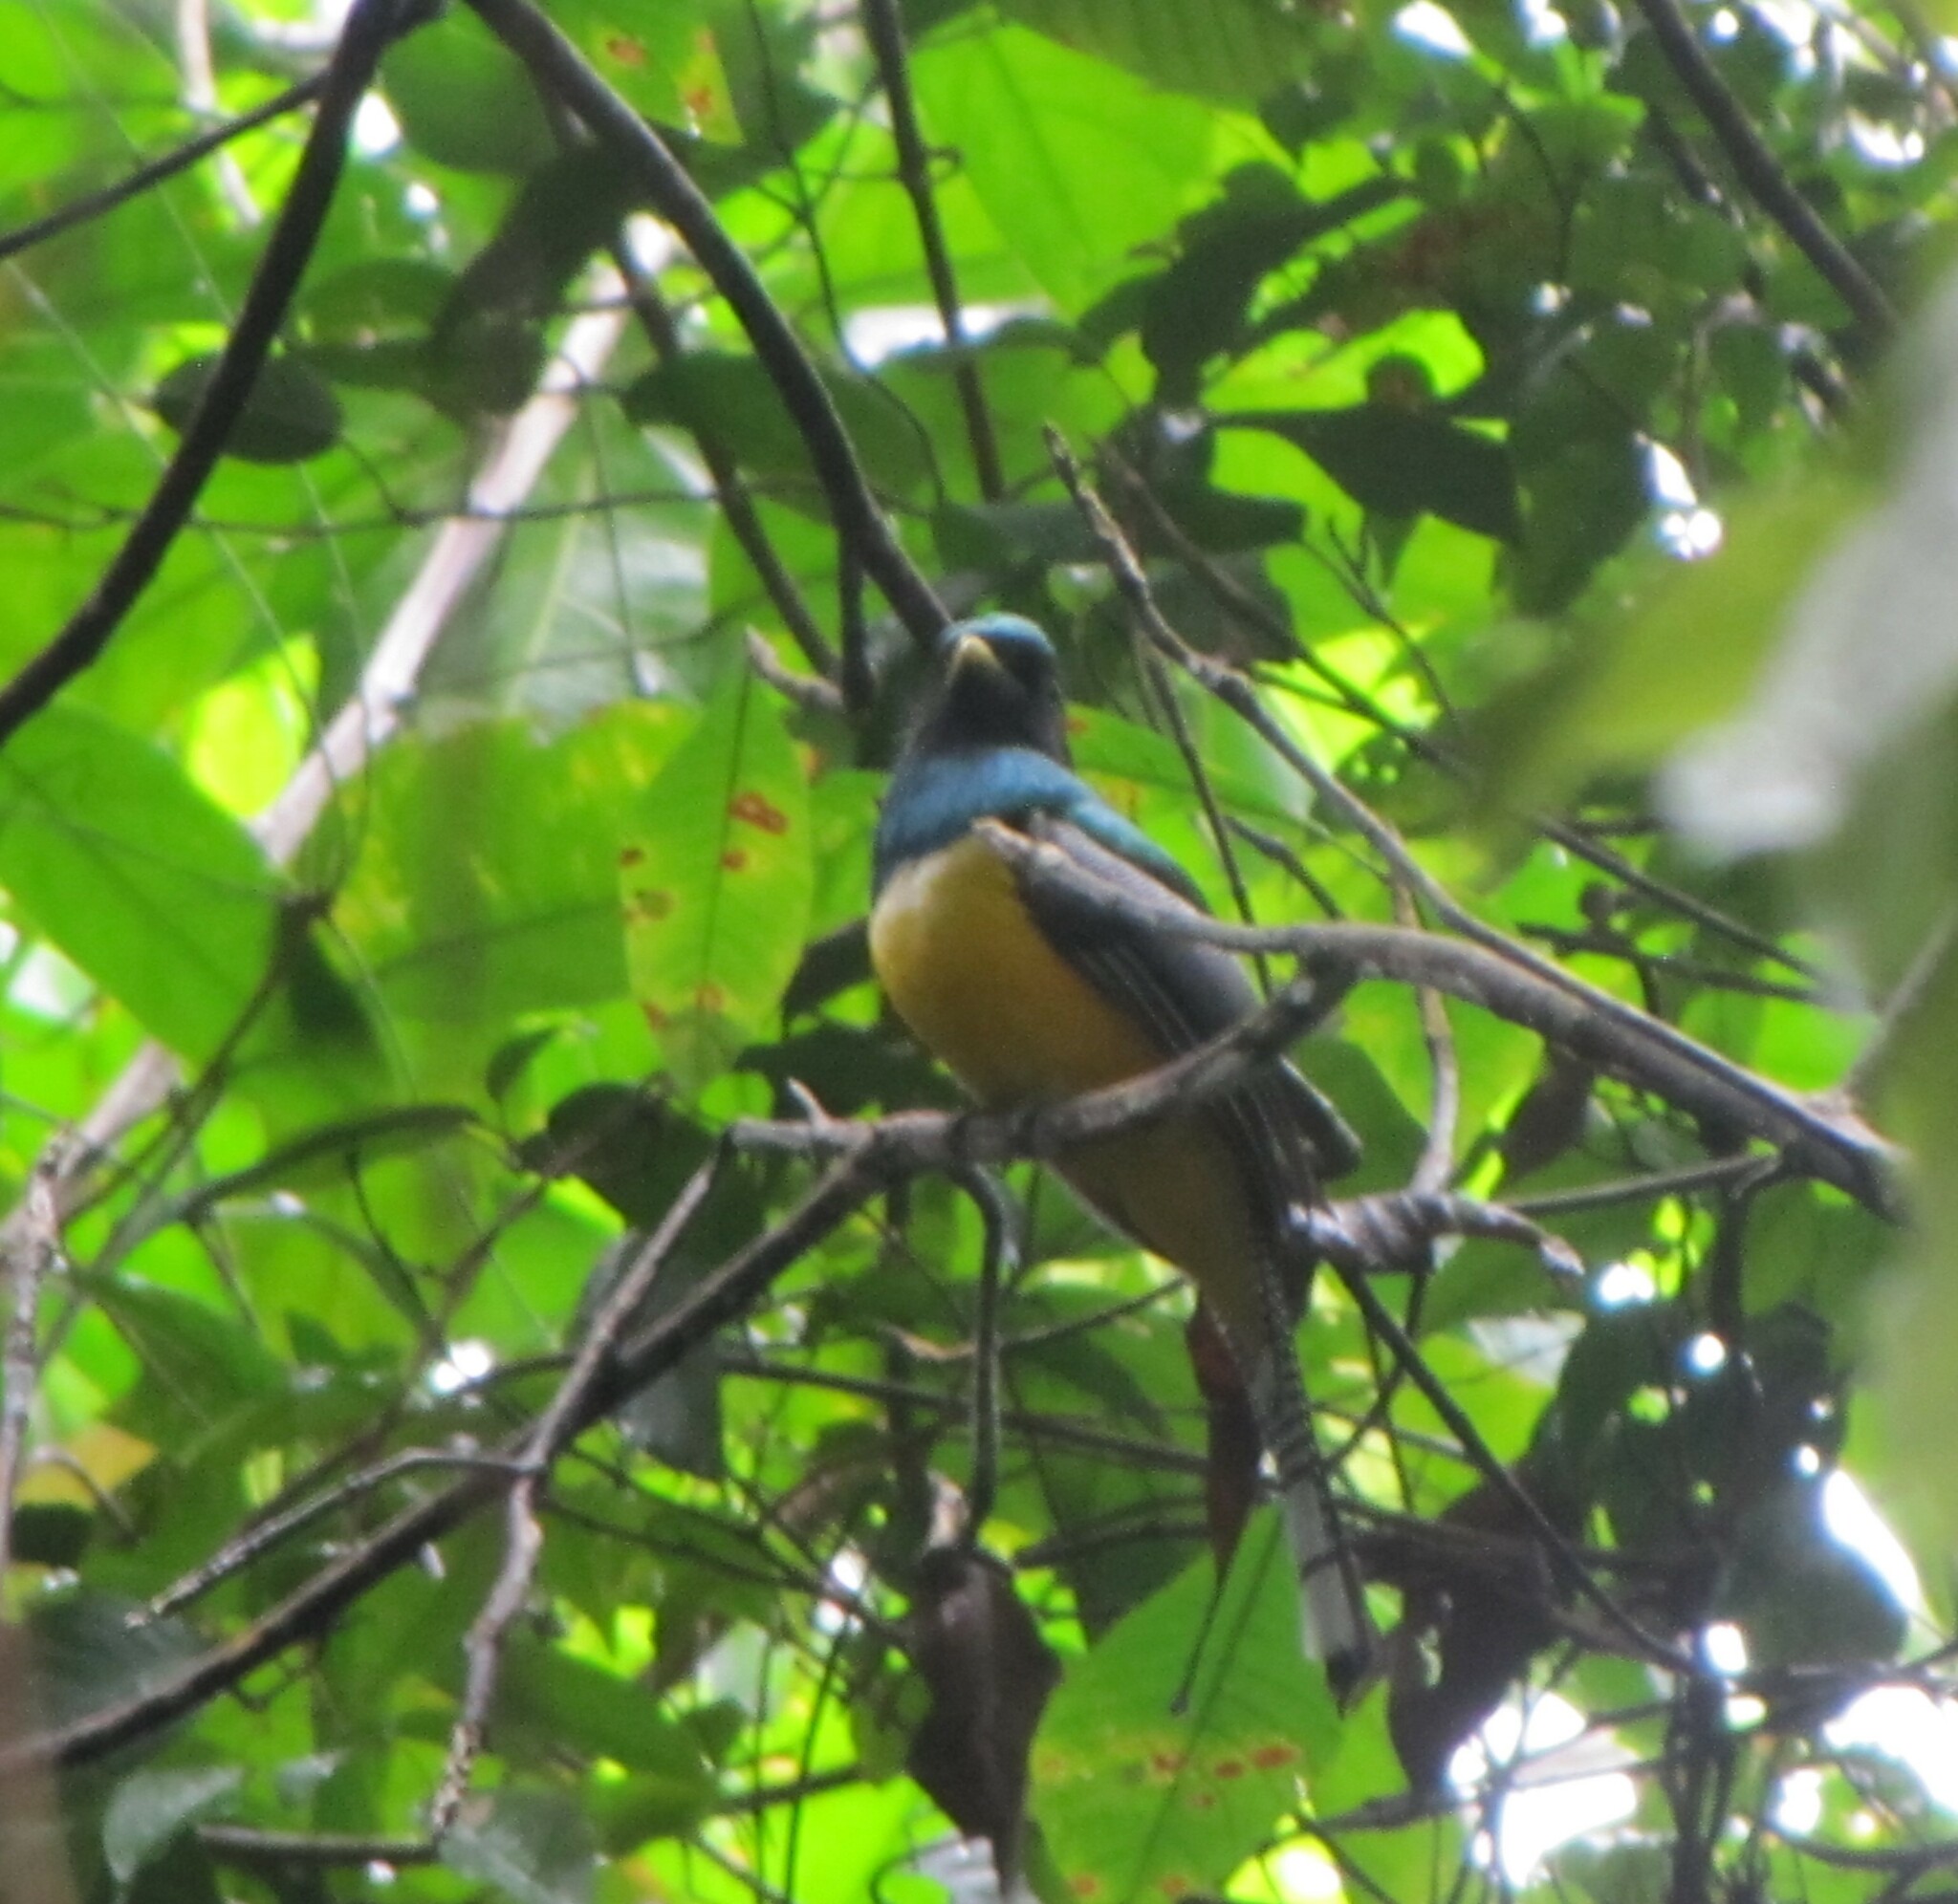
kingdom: Animalia
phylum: Chordata
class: Aves
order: Trogoniformes
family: Trogonidae
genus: Trogon
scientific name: Trogon rufus
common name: Black-throated trogon
